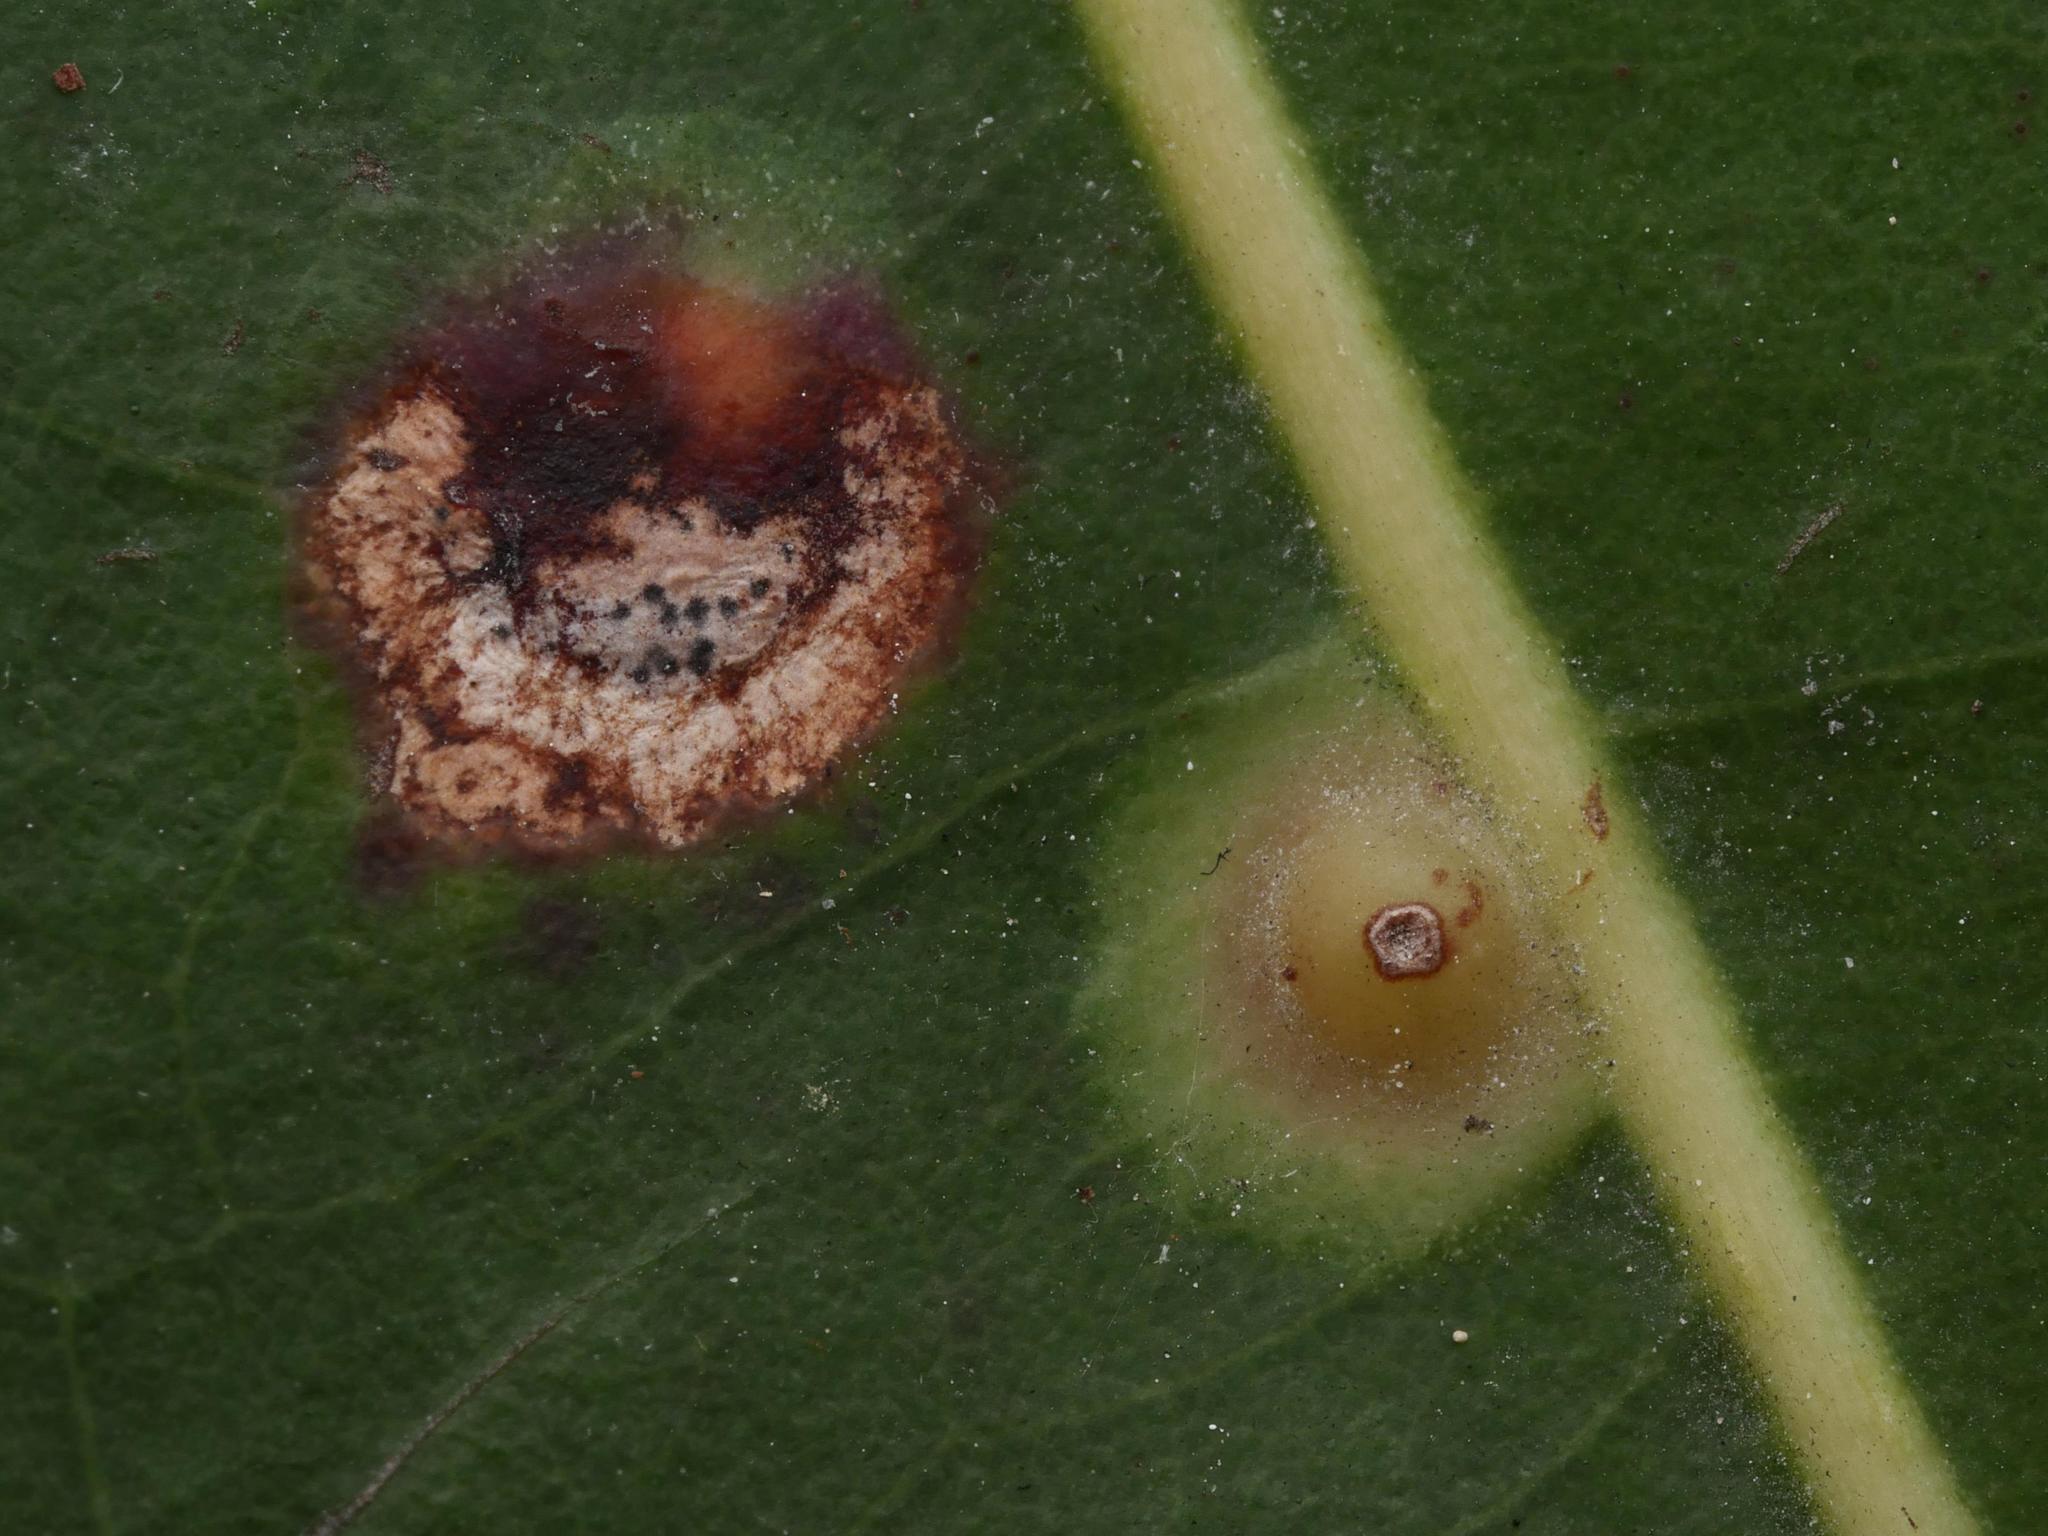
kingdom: Animalia
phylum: Arthropoda
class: Insecta
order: Diptera
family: Cecidomyiidae
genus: Ctenodactylomyia
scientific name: Ctenodactylomyia watsoni
